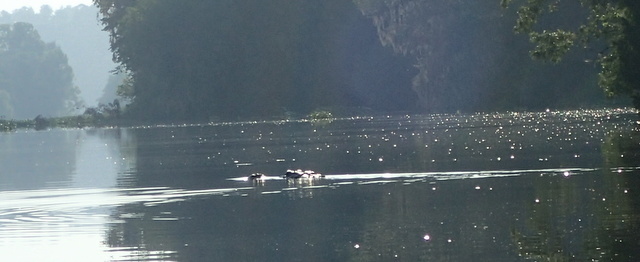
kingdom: Animalia
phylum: Chordata
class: Crocodylia
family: Alligatoridae
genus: Alligator
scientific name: Alligator mississippiensis
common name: American alligator
